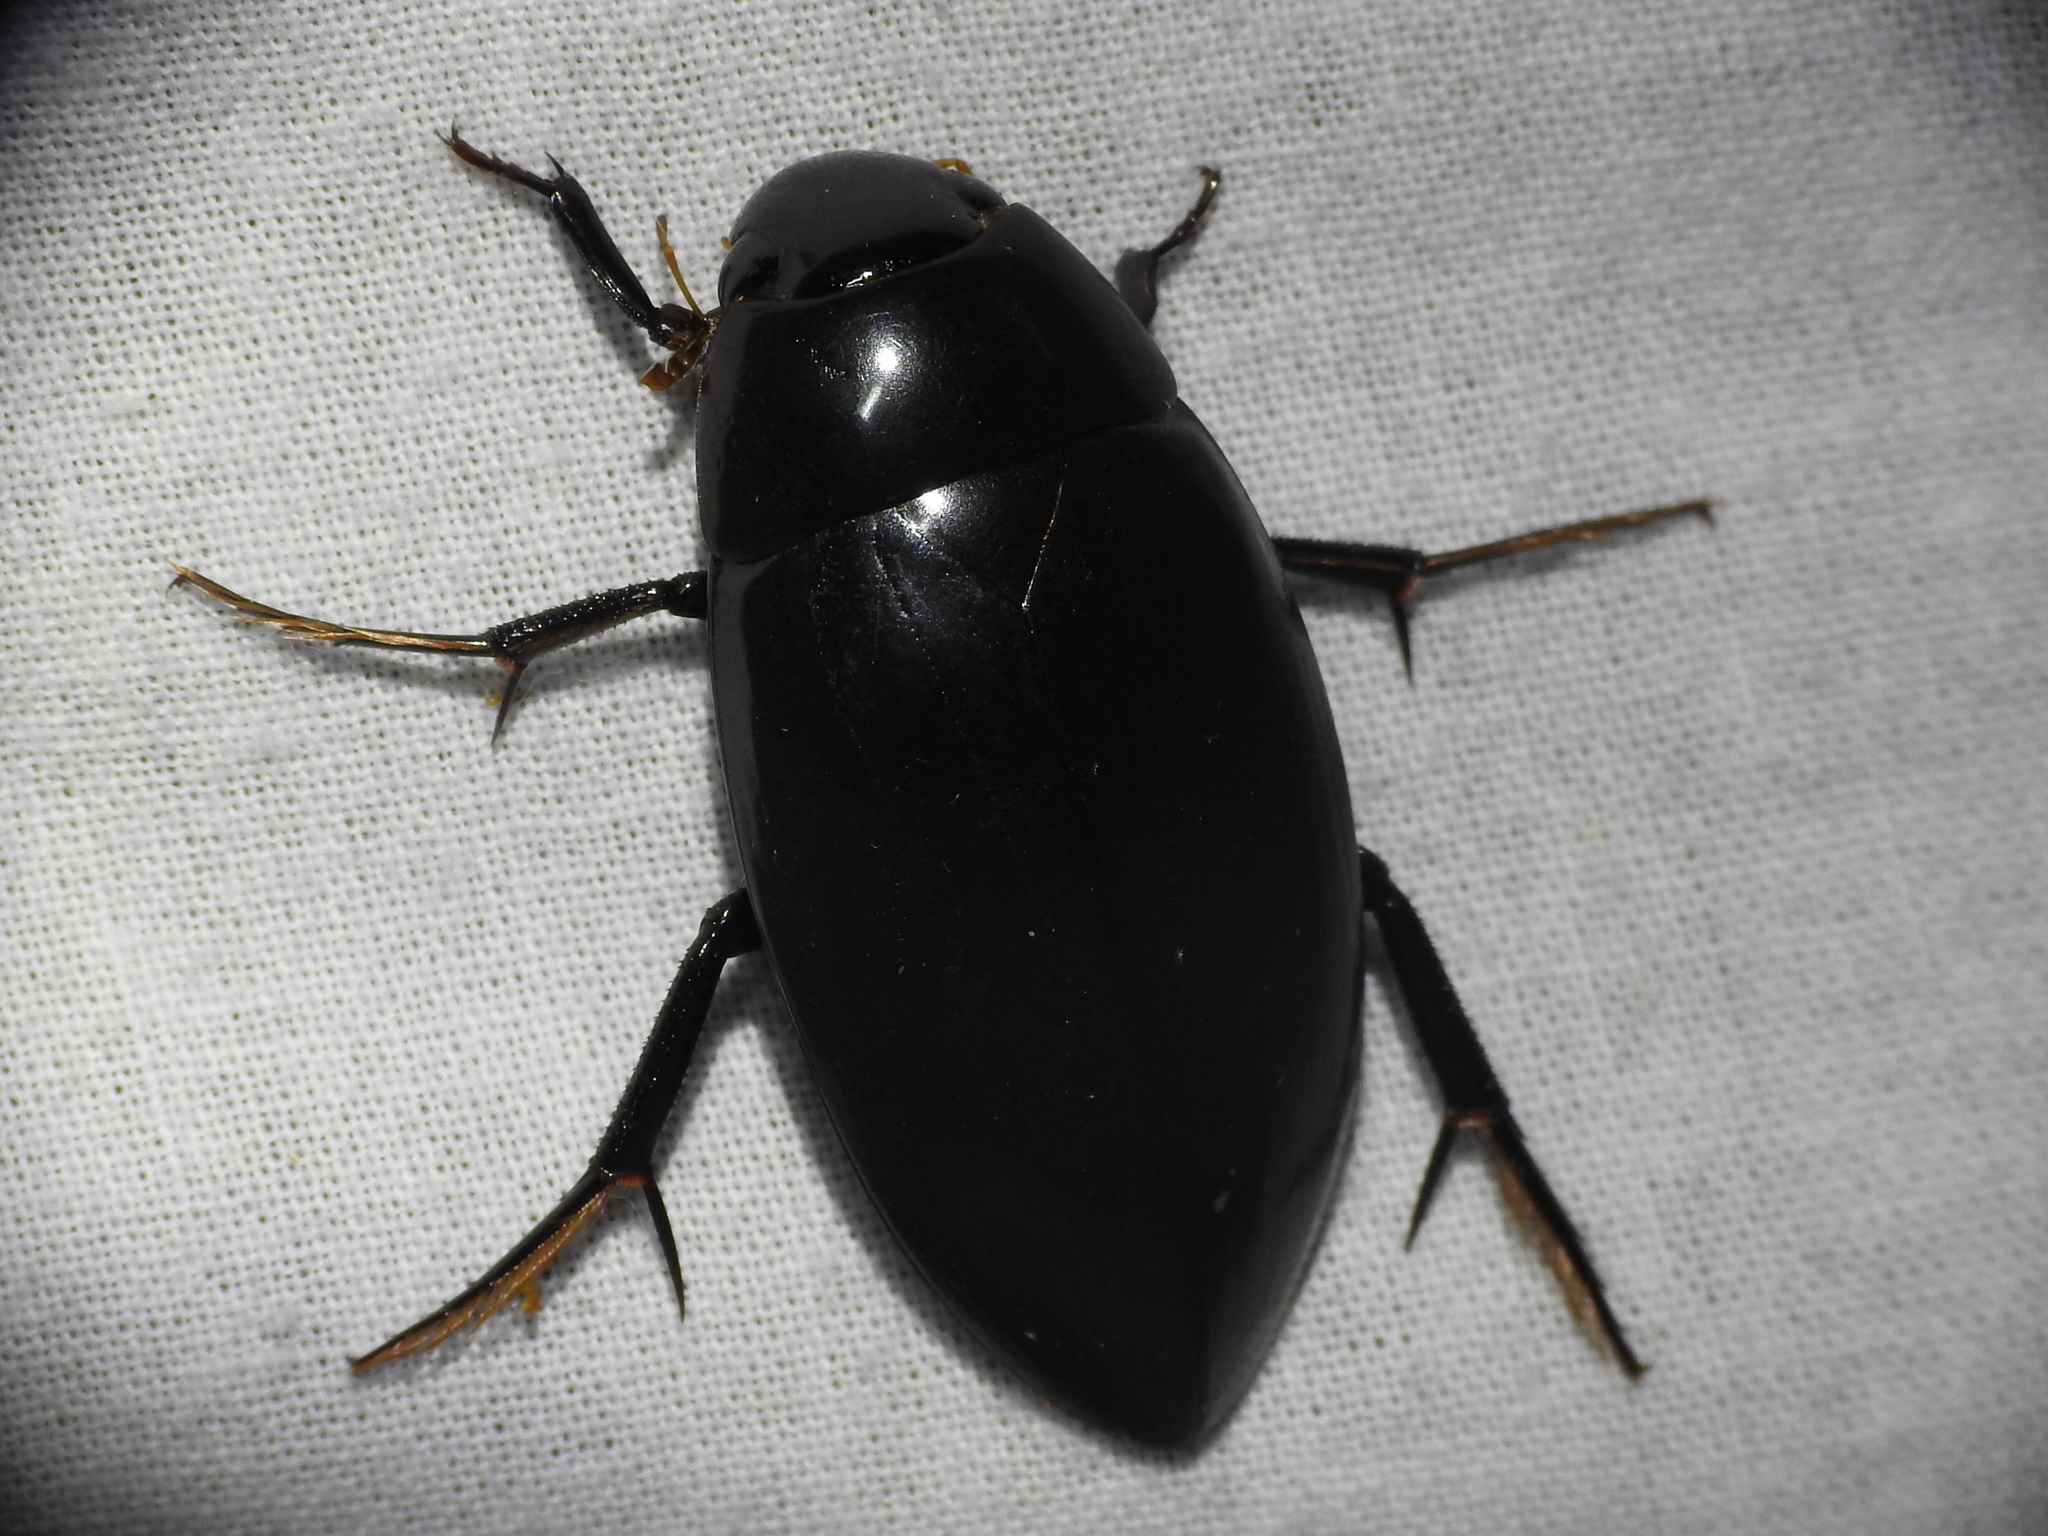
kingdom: Animalia
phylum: Arthropoda
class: Insecta
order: Coleoptera
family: Hydrophilidae
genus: Hydrophilus
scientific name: Hydrophilus triangularis
